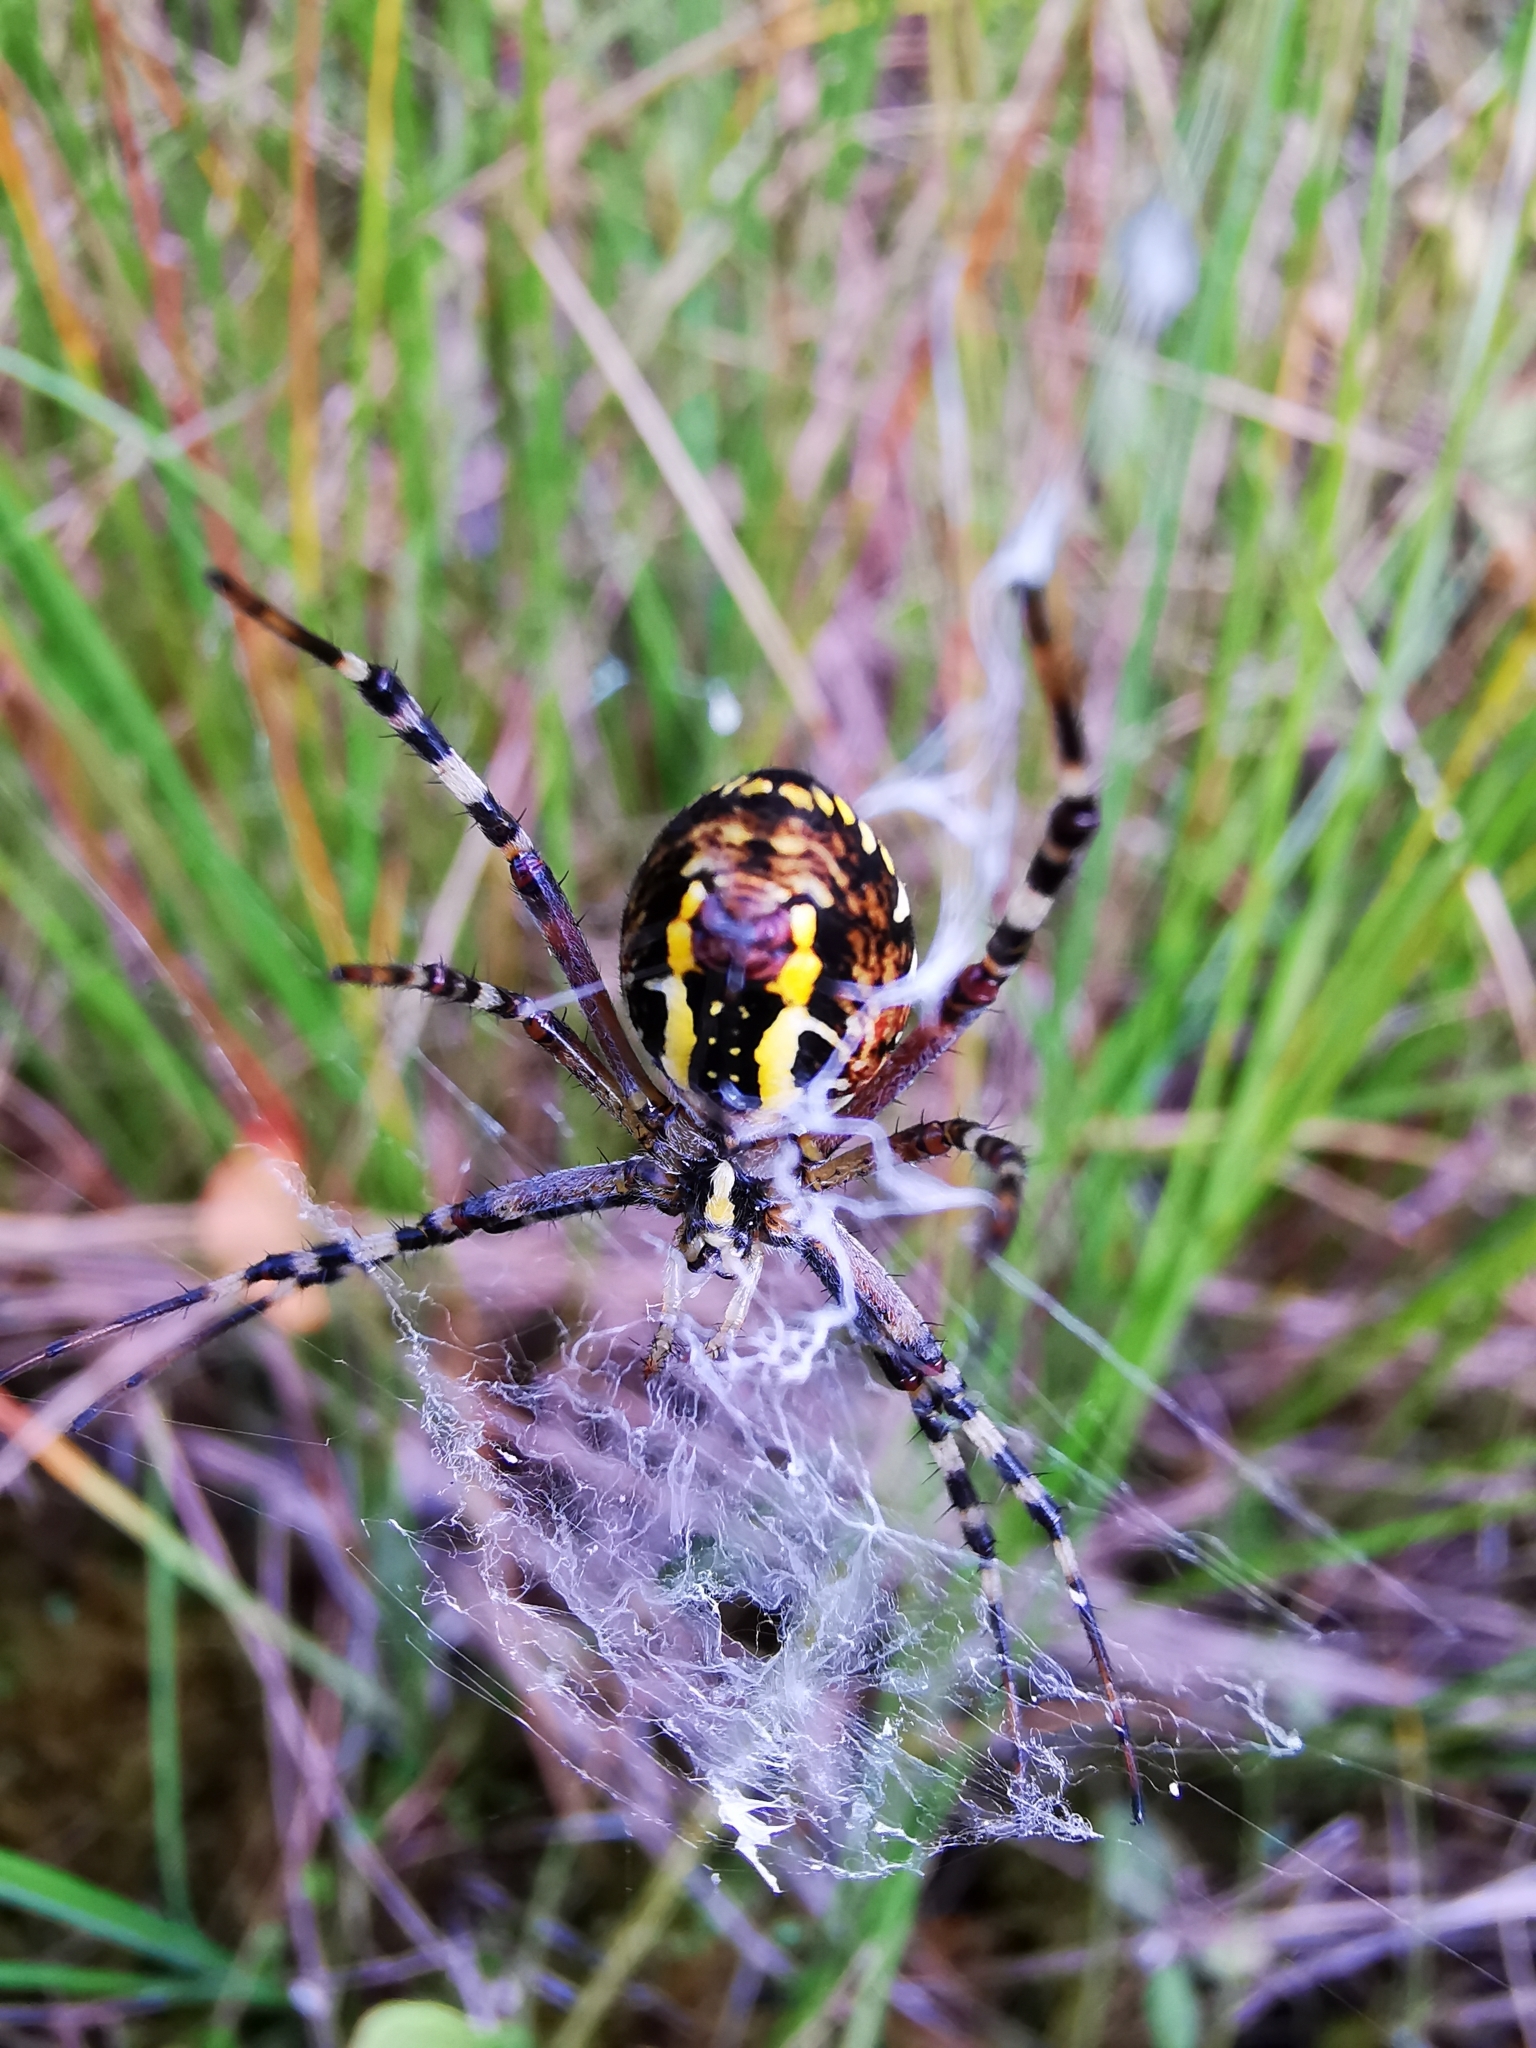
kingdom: Animalia
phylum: Arthropoda
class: Arachnida
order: Araneae
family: Araneidae
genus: Argiope
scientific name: Argiope bruennichi
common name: Wasp spider
